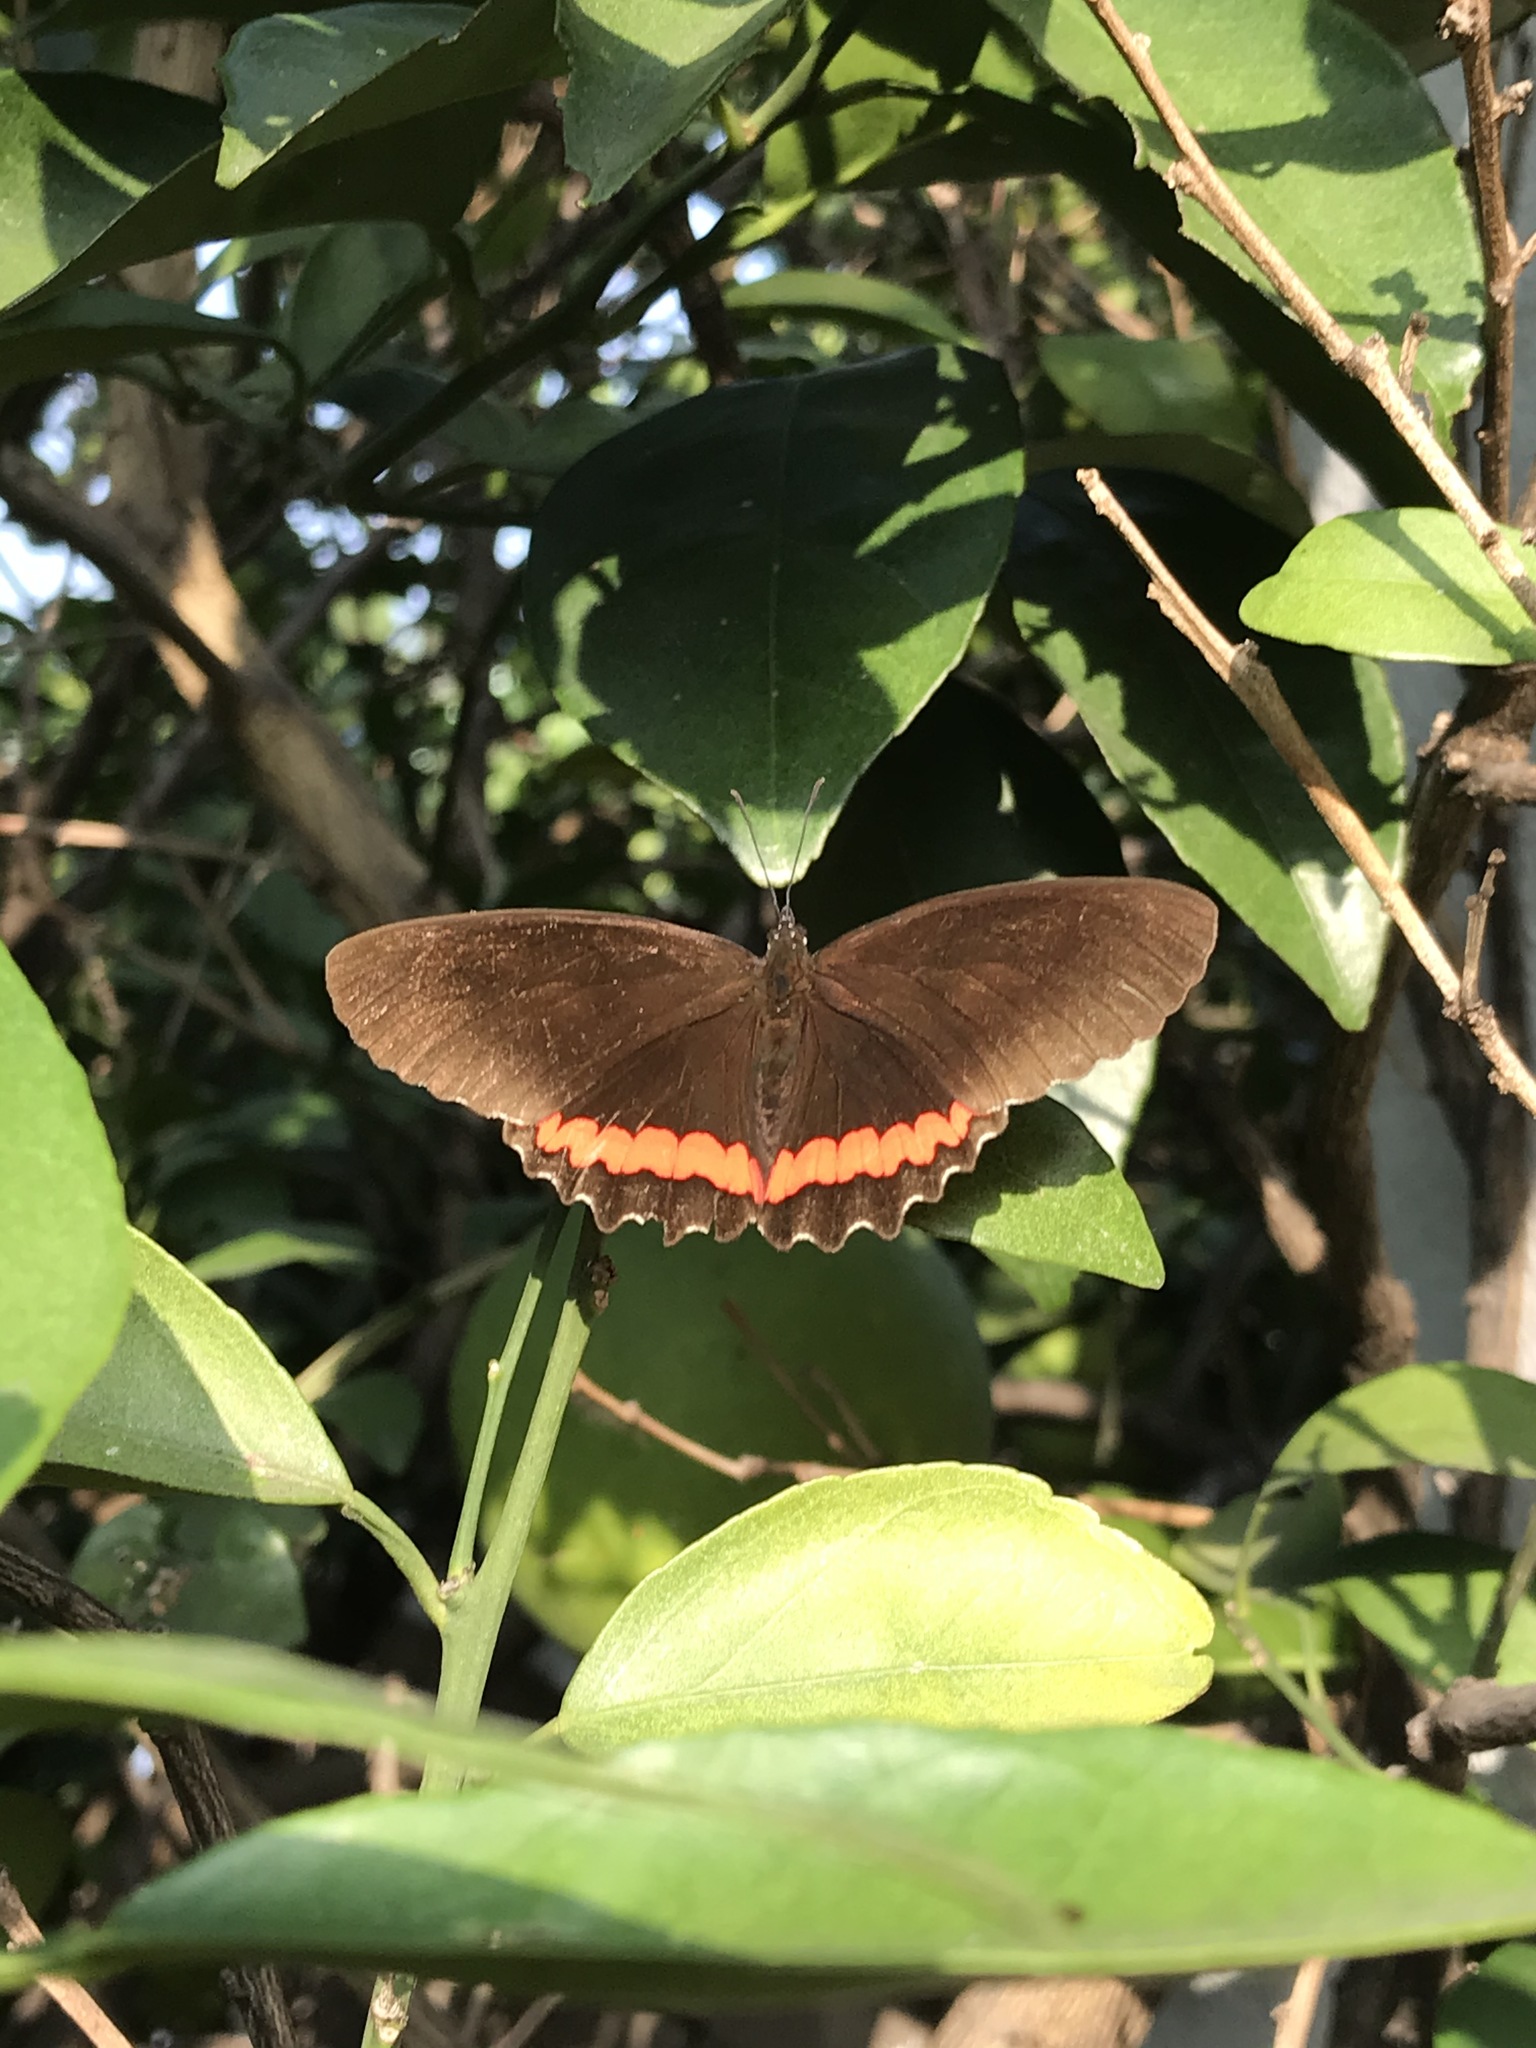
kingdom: Animalia
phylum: Arthropoda
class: Insecta
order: Lepidoptera
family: Nymphalidae
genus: Biblis
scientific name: Biblis aganisa
